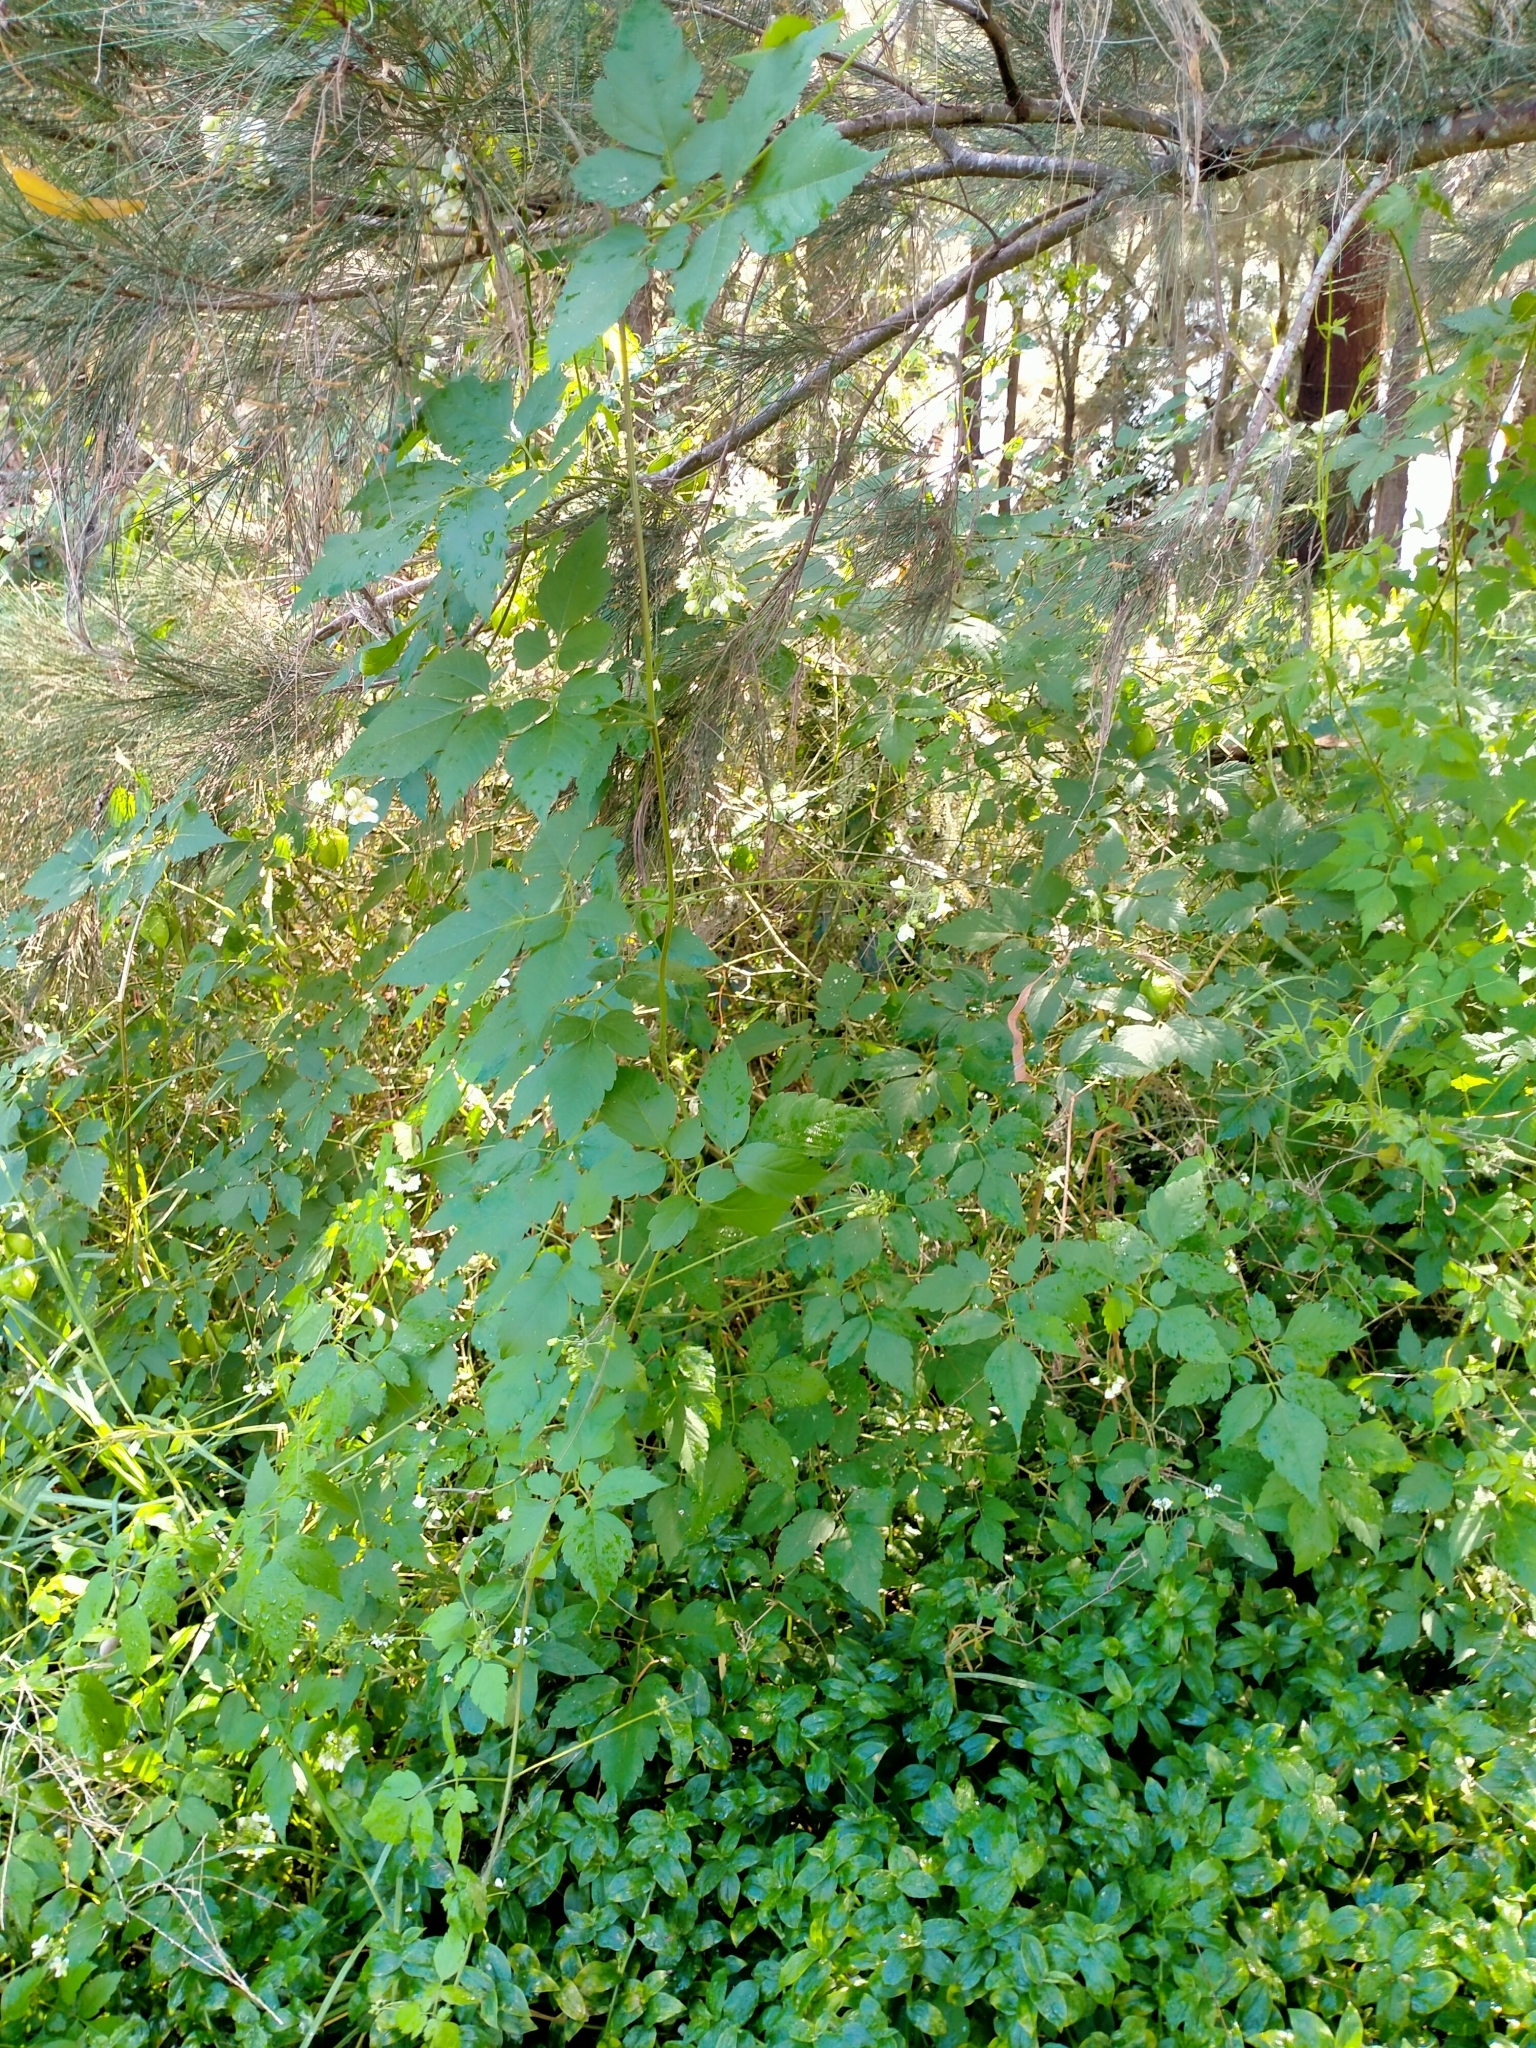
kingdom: Plantae
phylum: Tracheophyta
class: Magnoliopsida
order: Sapindales
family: Sapindaceae
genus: Cardiospermum
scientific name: Cardiospermum grandiflorum
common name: Balloon vine
